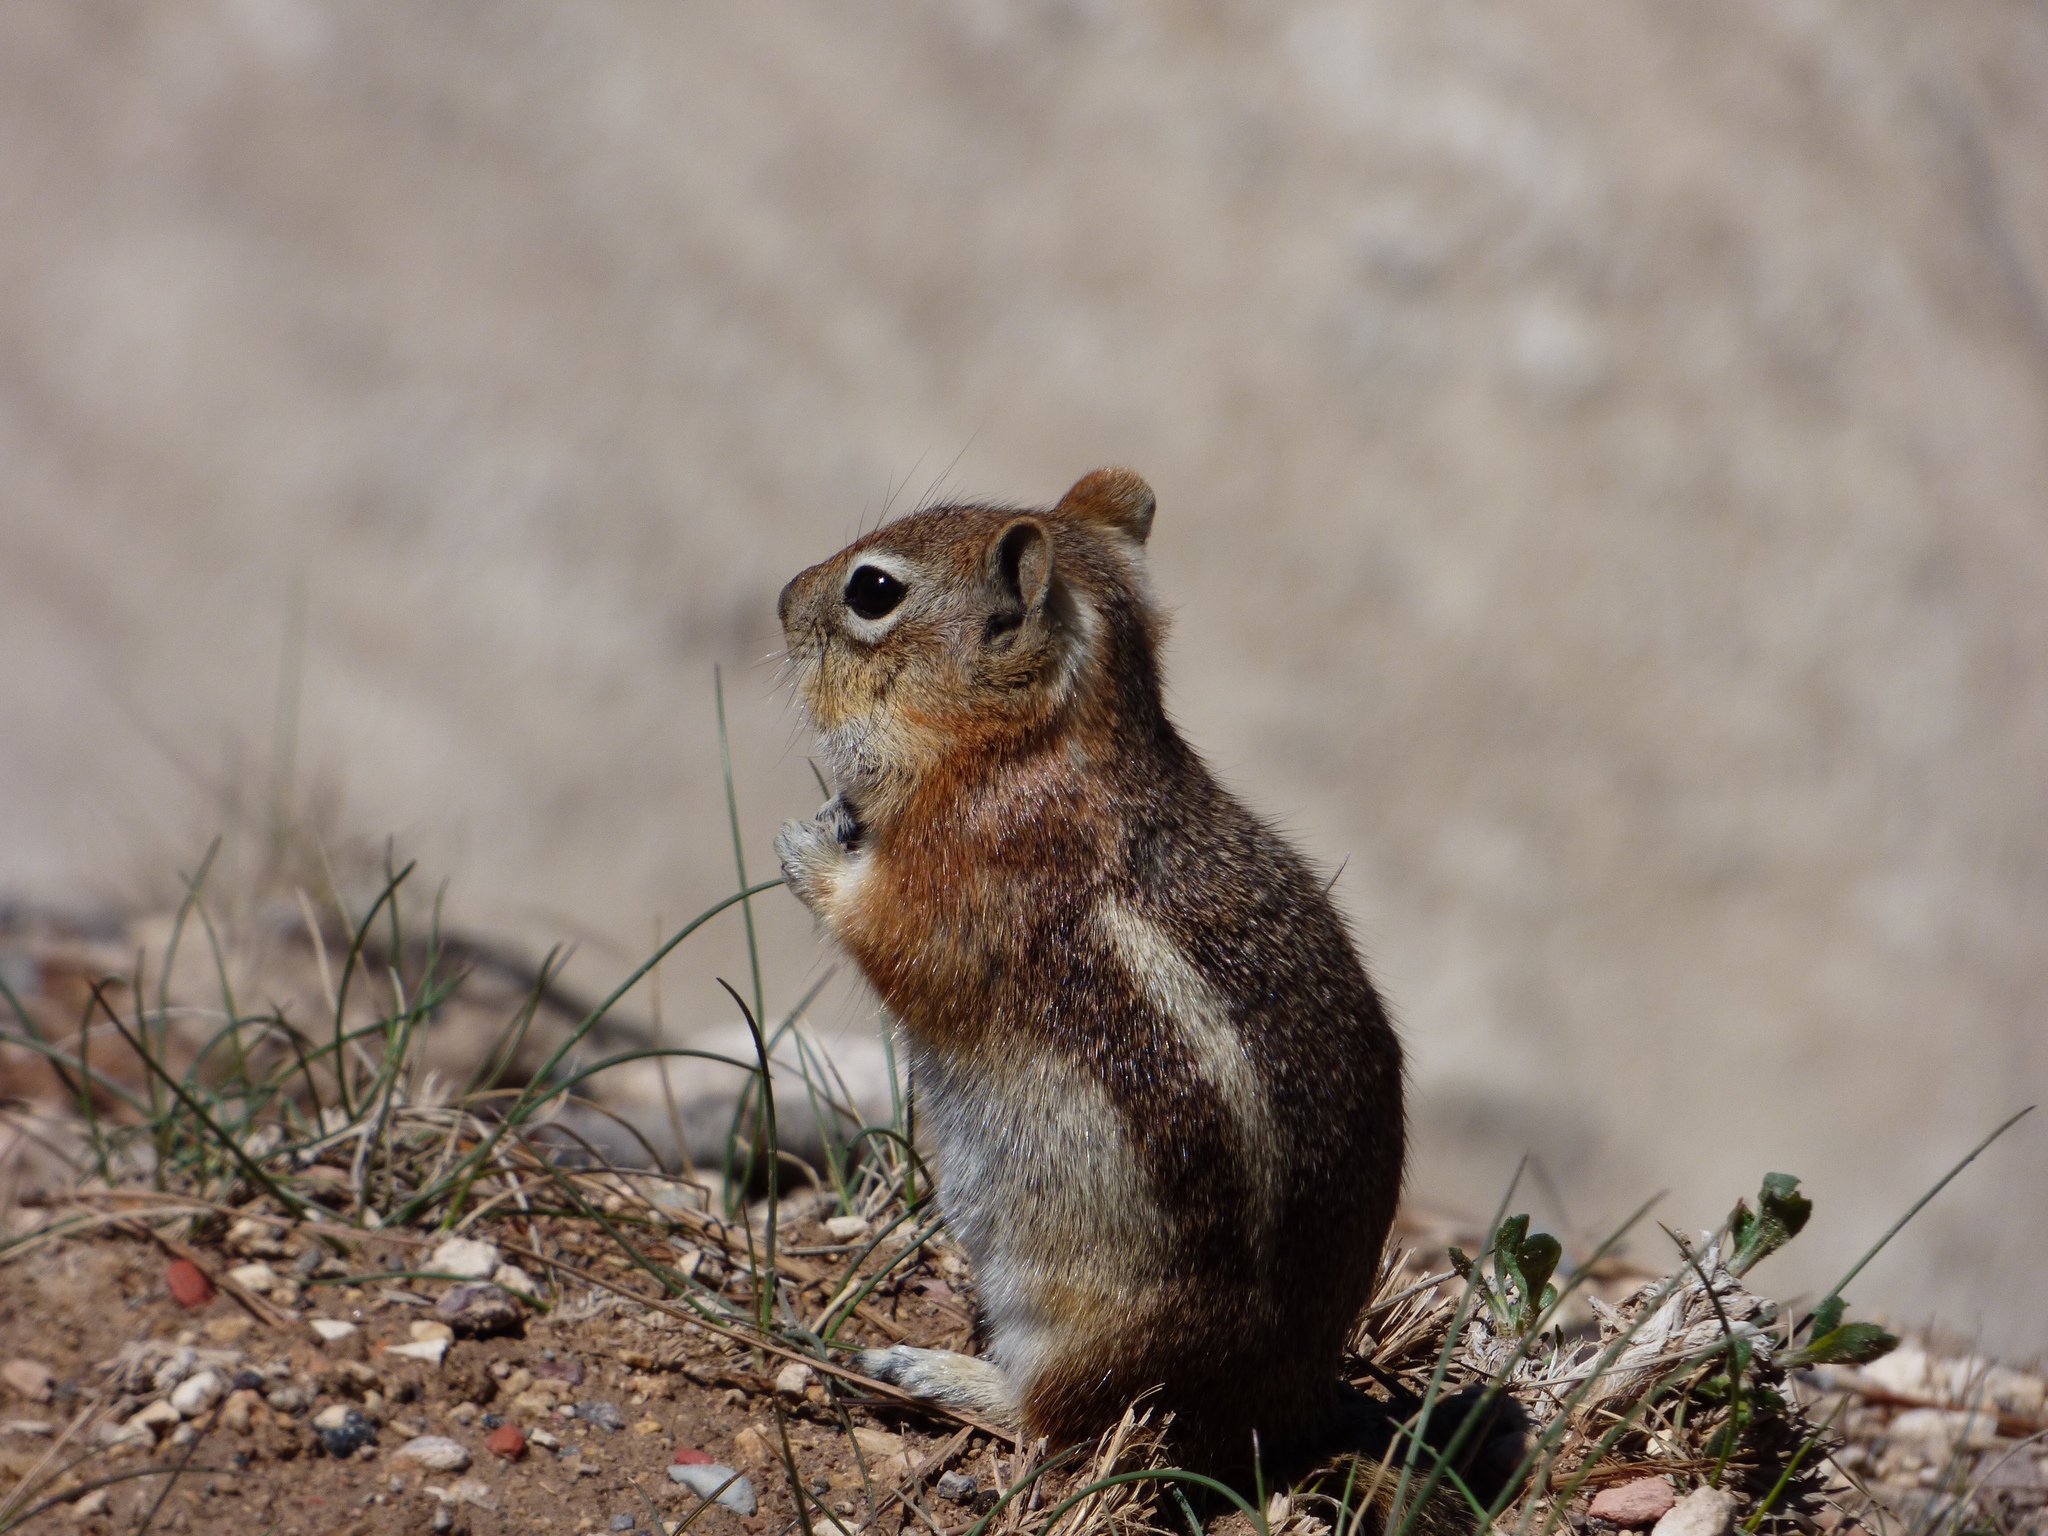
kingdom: Animalia
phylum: Chordata
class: Mammalia
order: Rodentia
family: Sciuridae
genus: Callospermophilus
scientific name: Callospermophilus lateralis
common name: Golden-mantled ground squirrel
